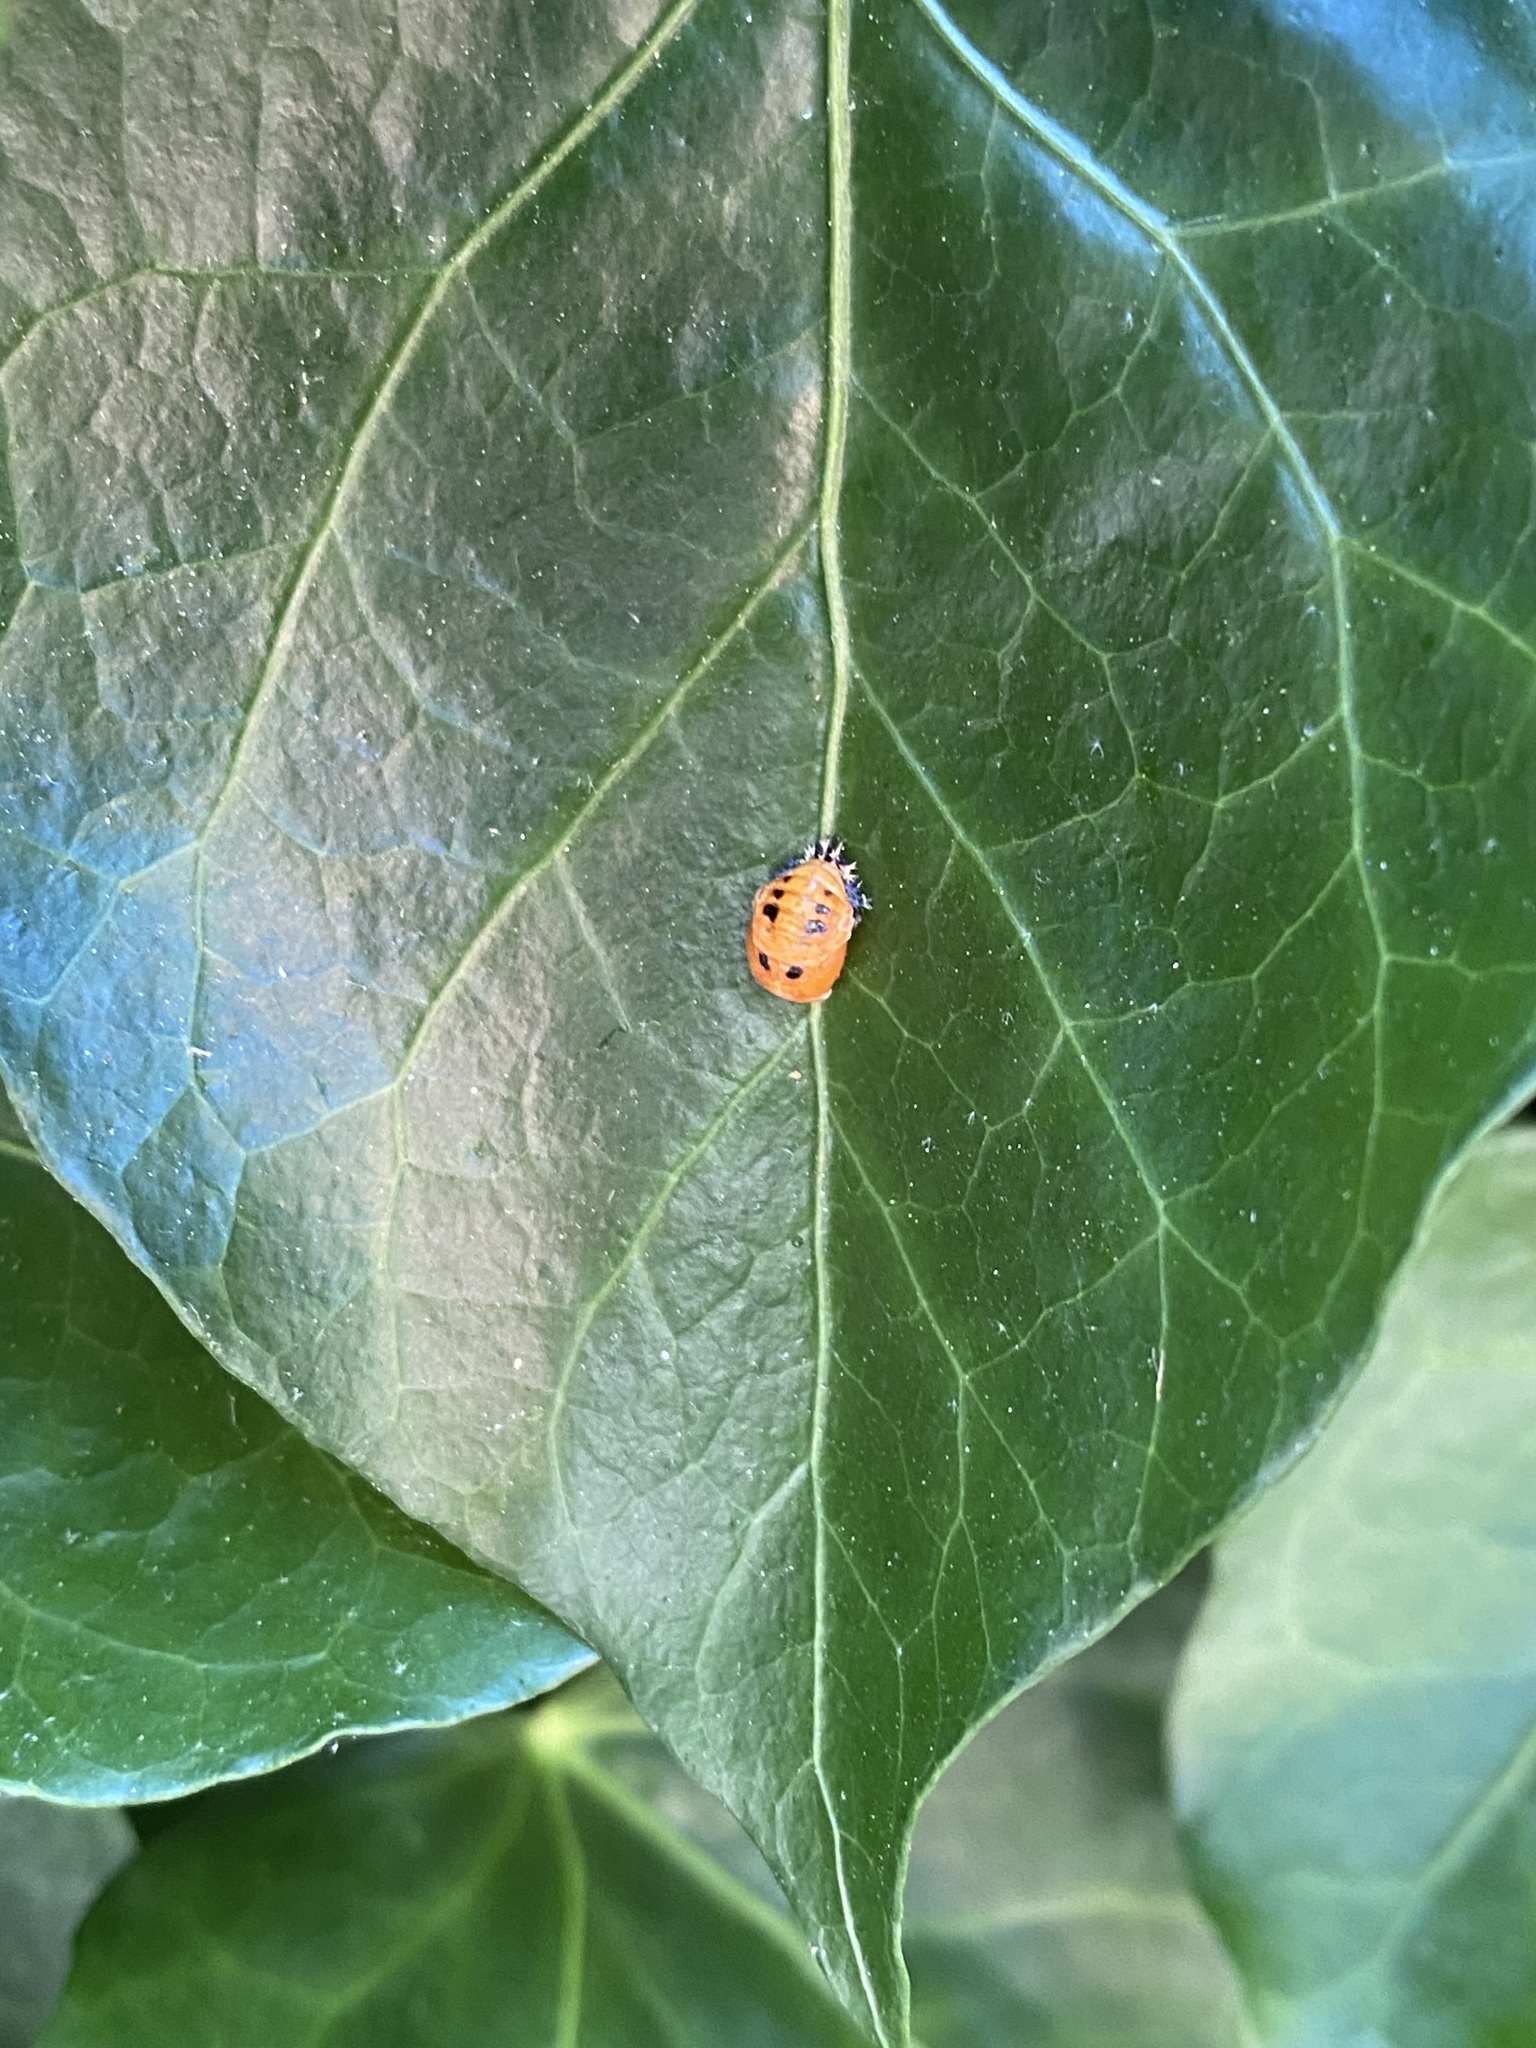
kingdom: Animalia
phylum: Arthropoda
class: Insecta
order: Coleoptera
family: Coccinellidae
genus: Harmonia
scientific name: Harmonia axyridis
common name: Harlequin ladybird
